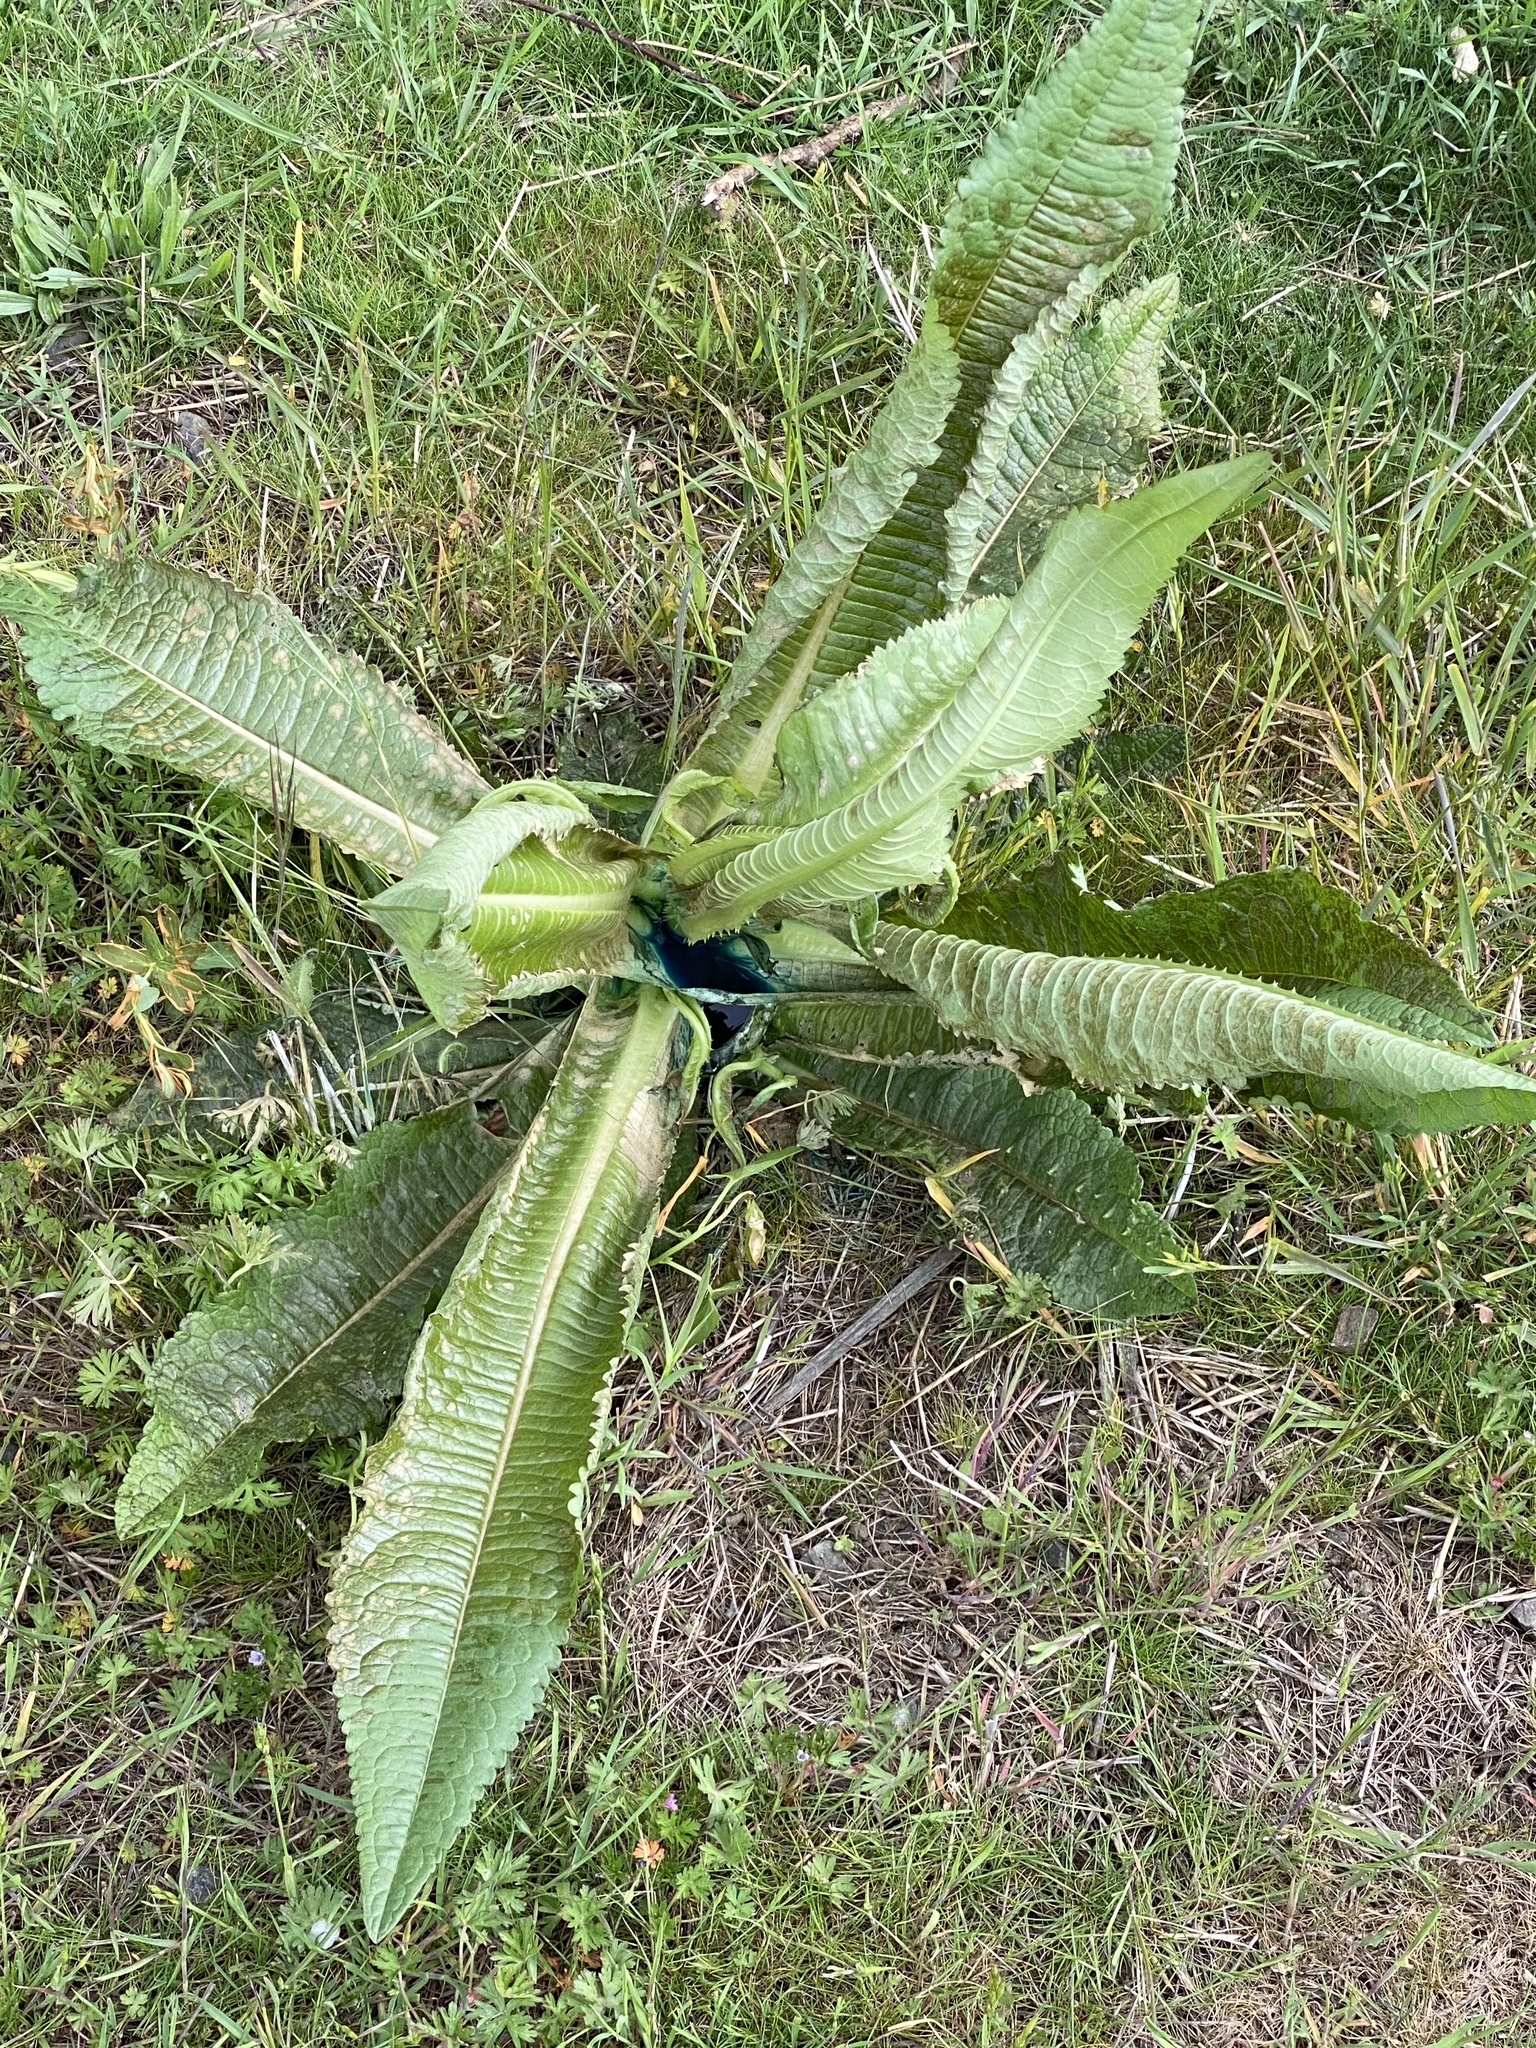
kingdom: Plantae
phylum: Tracheophyta
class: Magnoliopsida
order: Dipsacales
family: Caprifoliaceae
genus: Dipsacus
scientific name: Dipsacus fullonum
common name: Teasel
